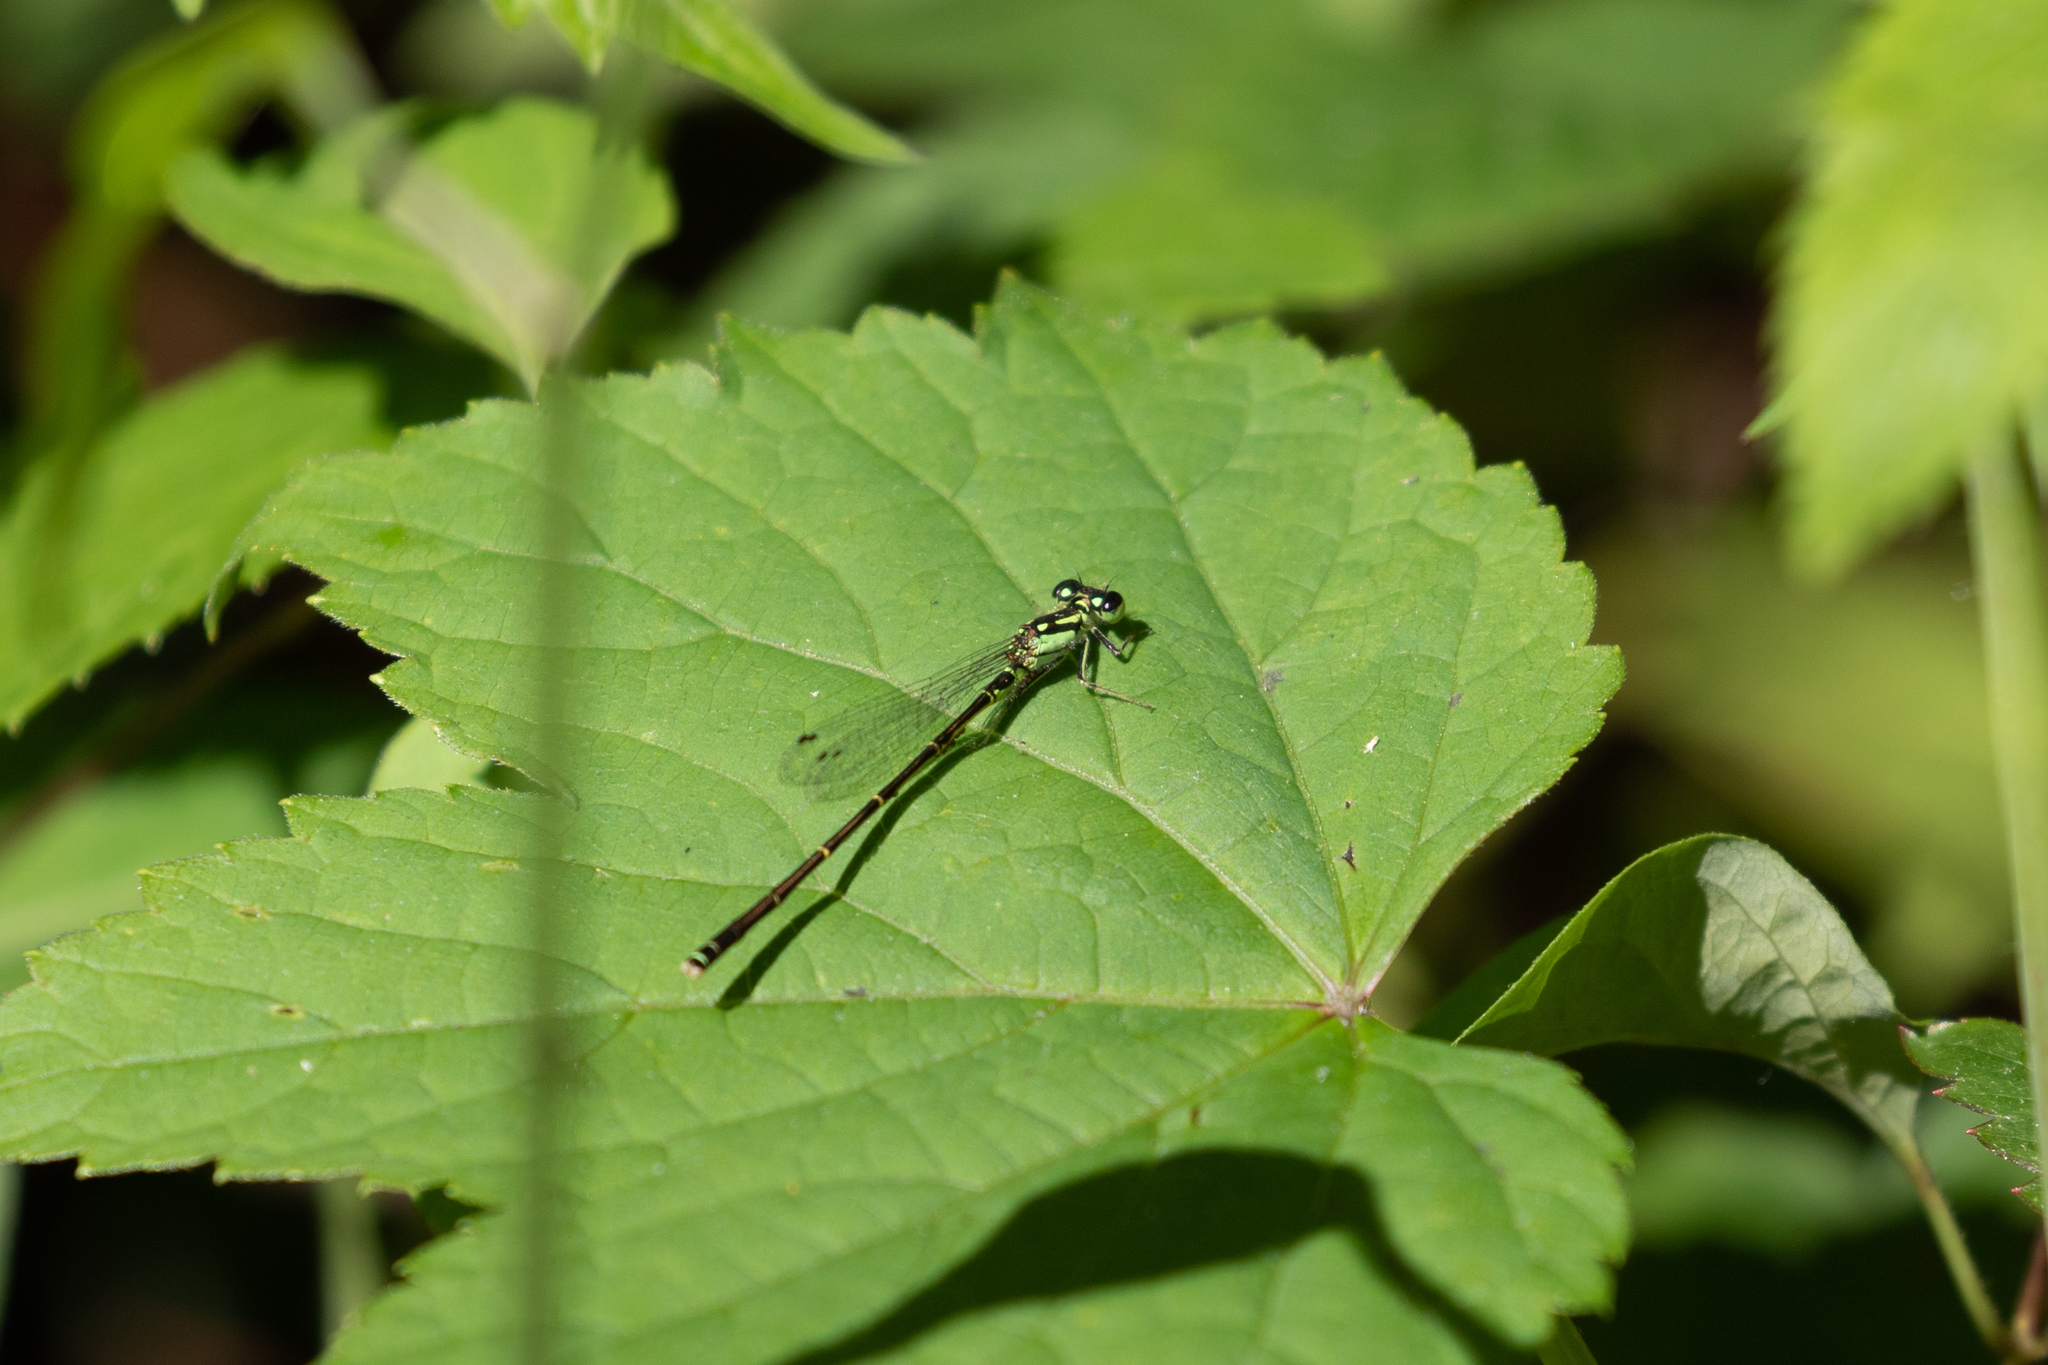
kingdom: Animalia
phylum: Arthropoda
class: Insecta
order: Odonata
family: Coenagrionidae
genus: Ischnura
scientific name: Ischnura posita
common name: Fragile forktail
